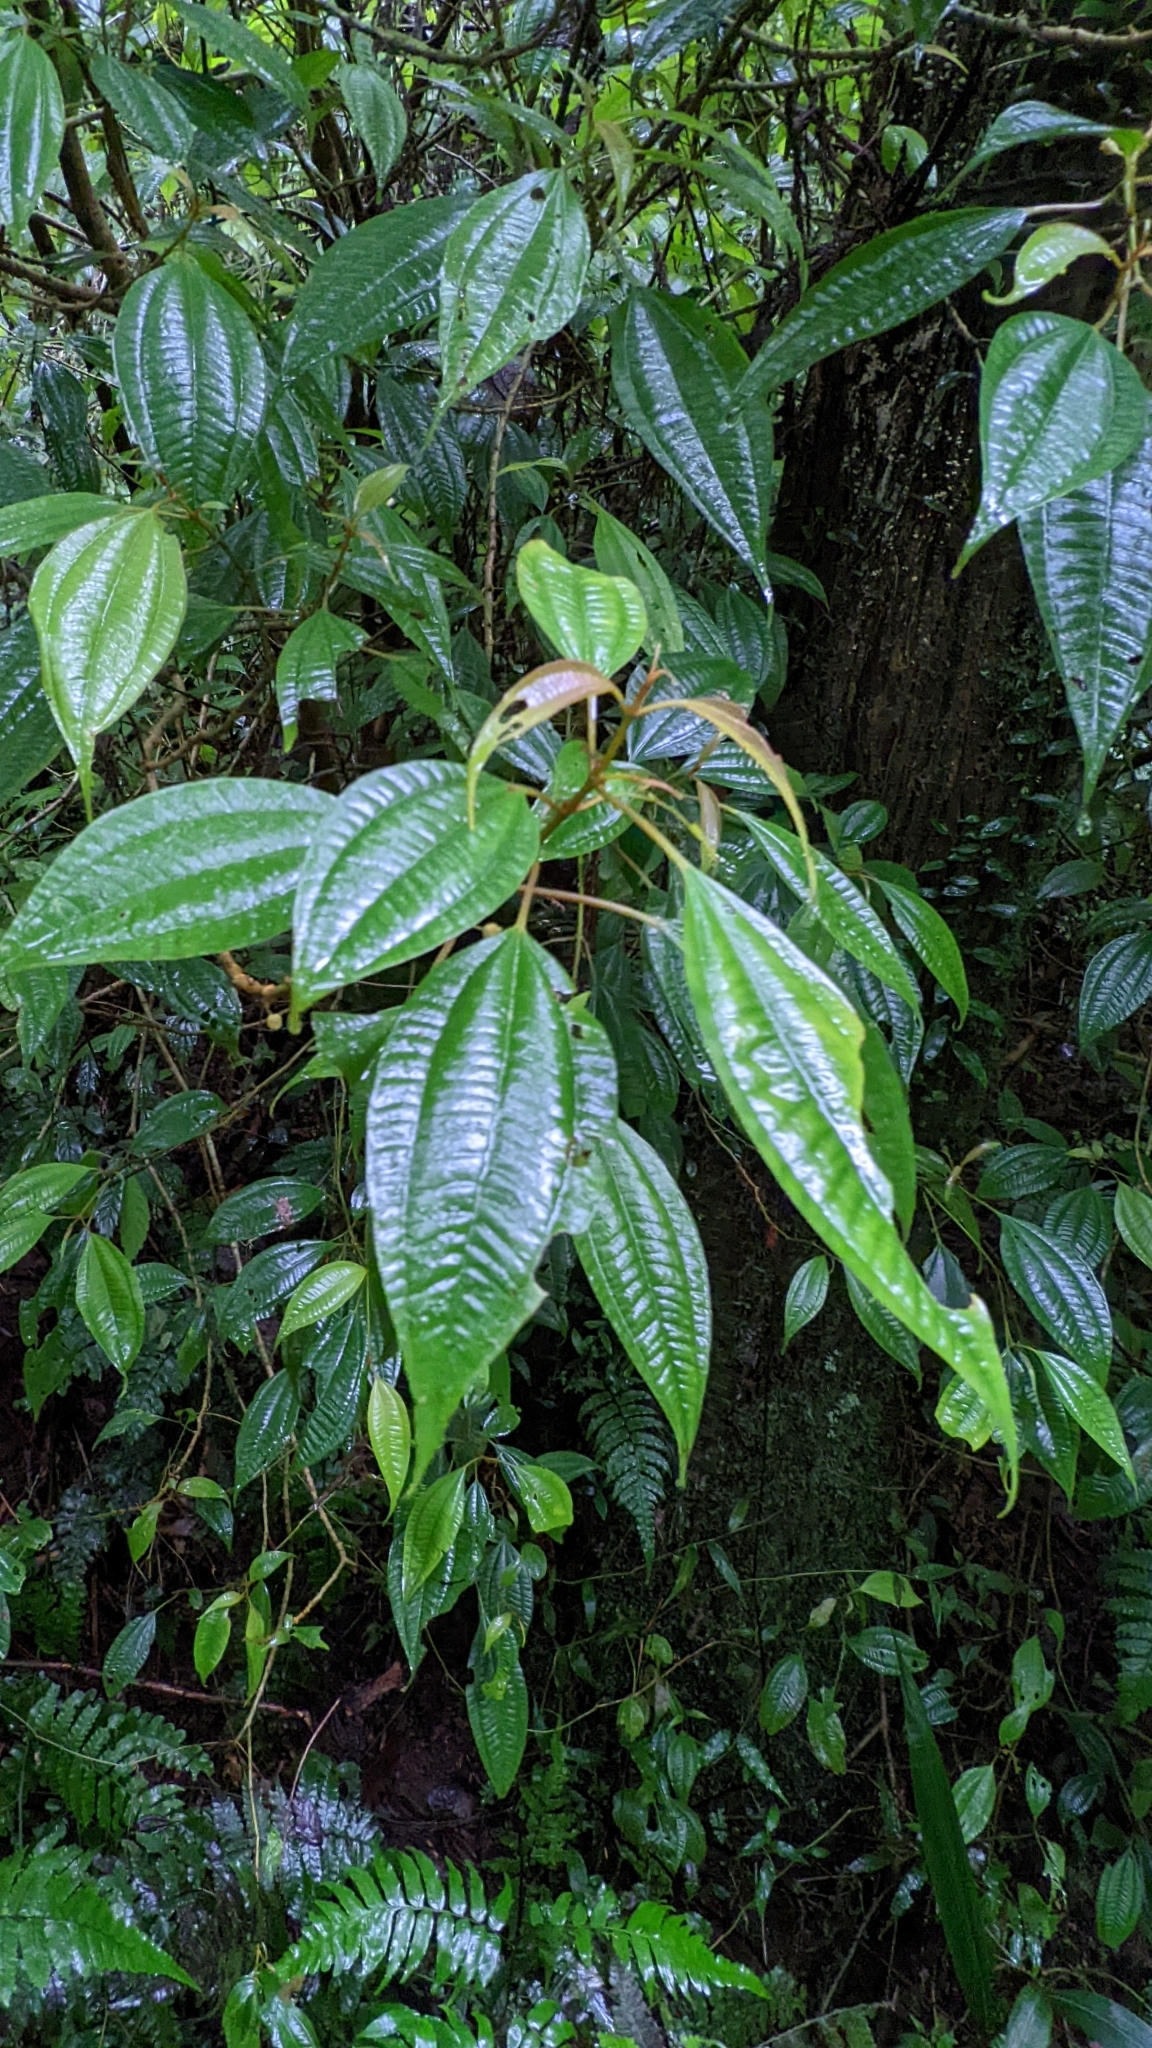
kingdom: Plantae
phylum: Tracheophyta
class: Magnoliopsida
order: Myrtales
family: Melastomataceae
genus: Blastus
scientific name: Blastus cochinchinensis
